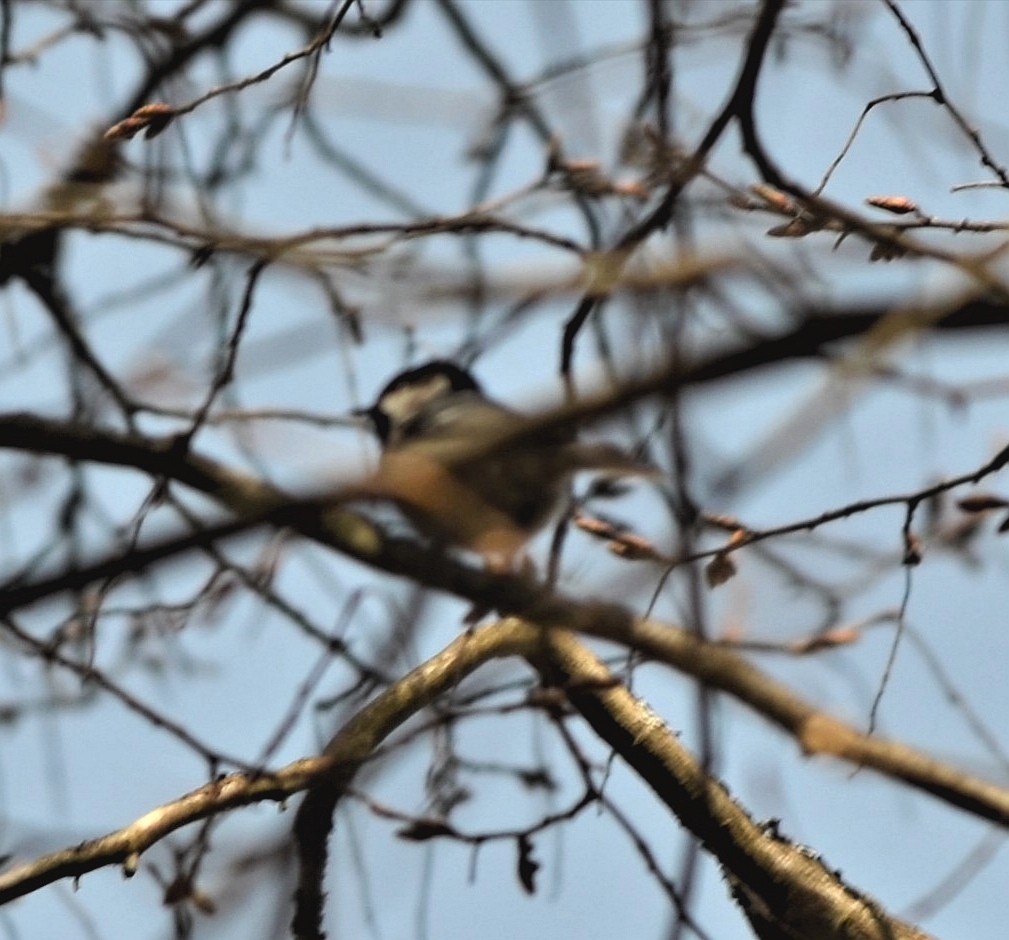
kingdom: Animalia
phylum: Chordata
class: Aves
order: Passeriformes
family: Paridae
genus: Periparus
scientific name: Periparus ater
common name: Coal tit
